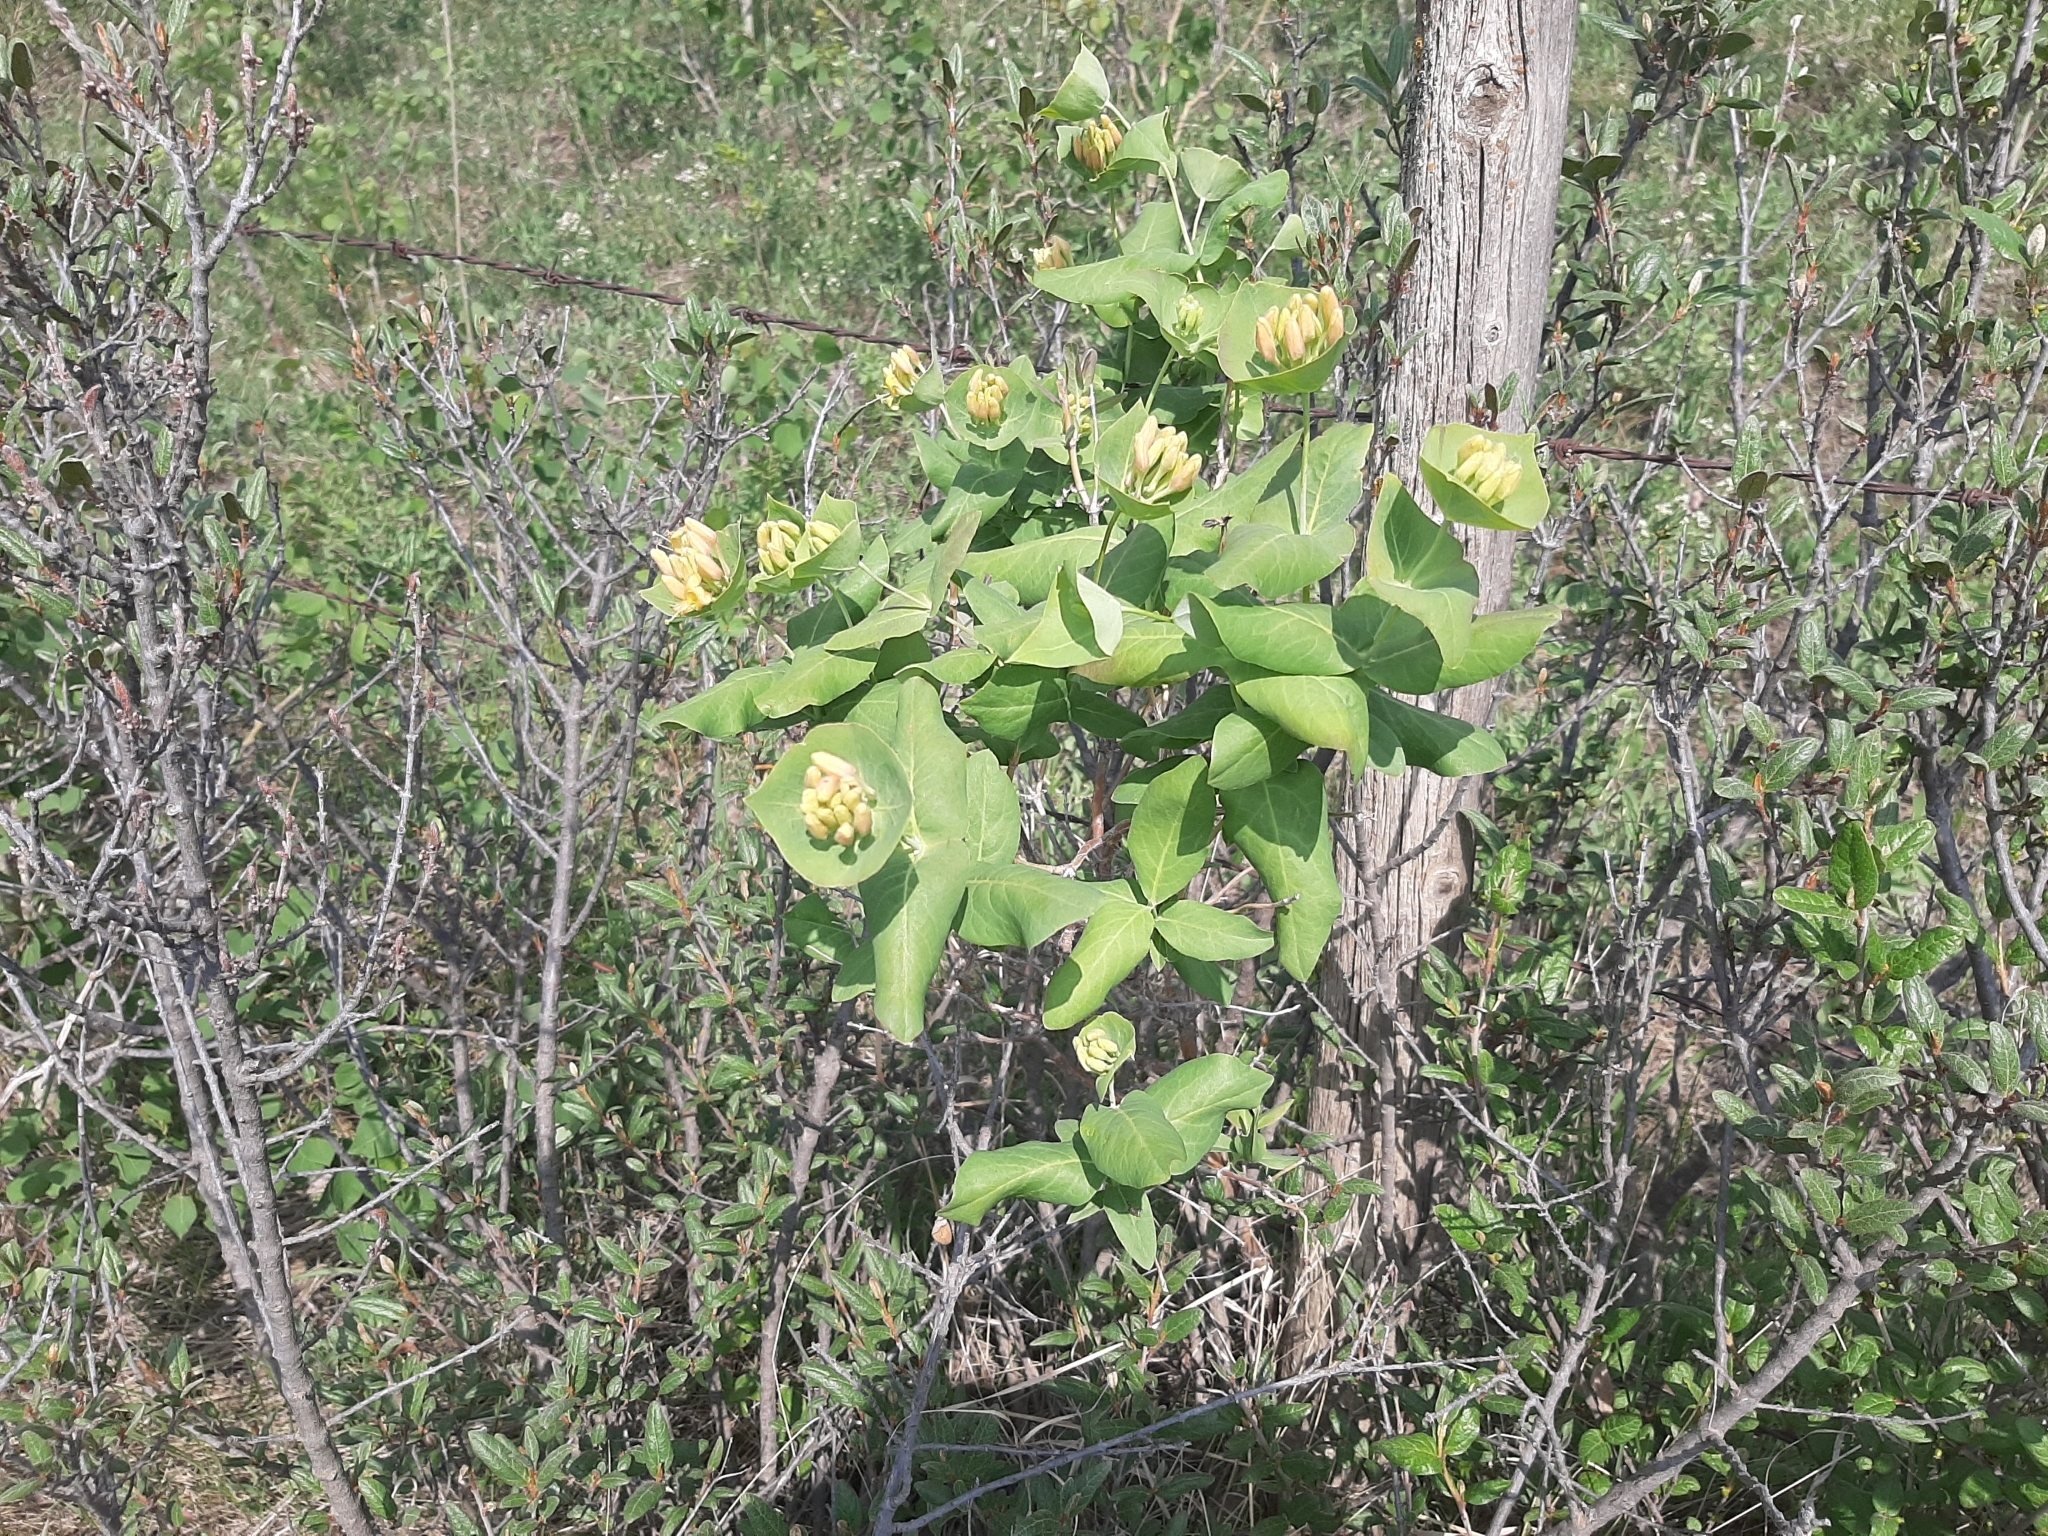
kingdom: Plantae
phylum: Tracheophyta
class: Magnoliopsida
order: Dipsacales
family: Caprifoliaceae
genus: Lonicera
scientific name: Lonicera dioica
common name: Limber honeysuckle
